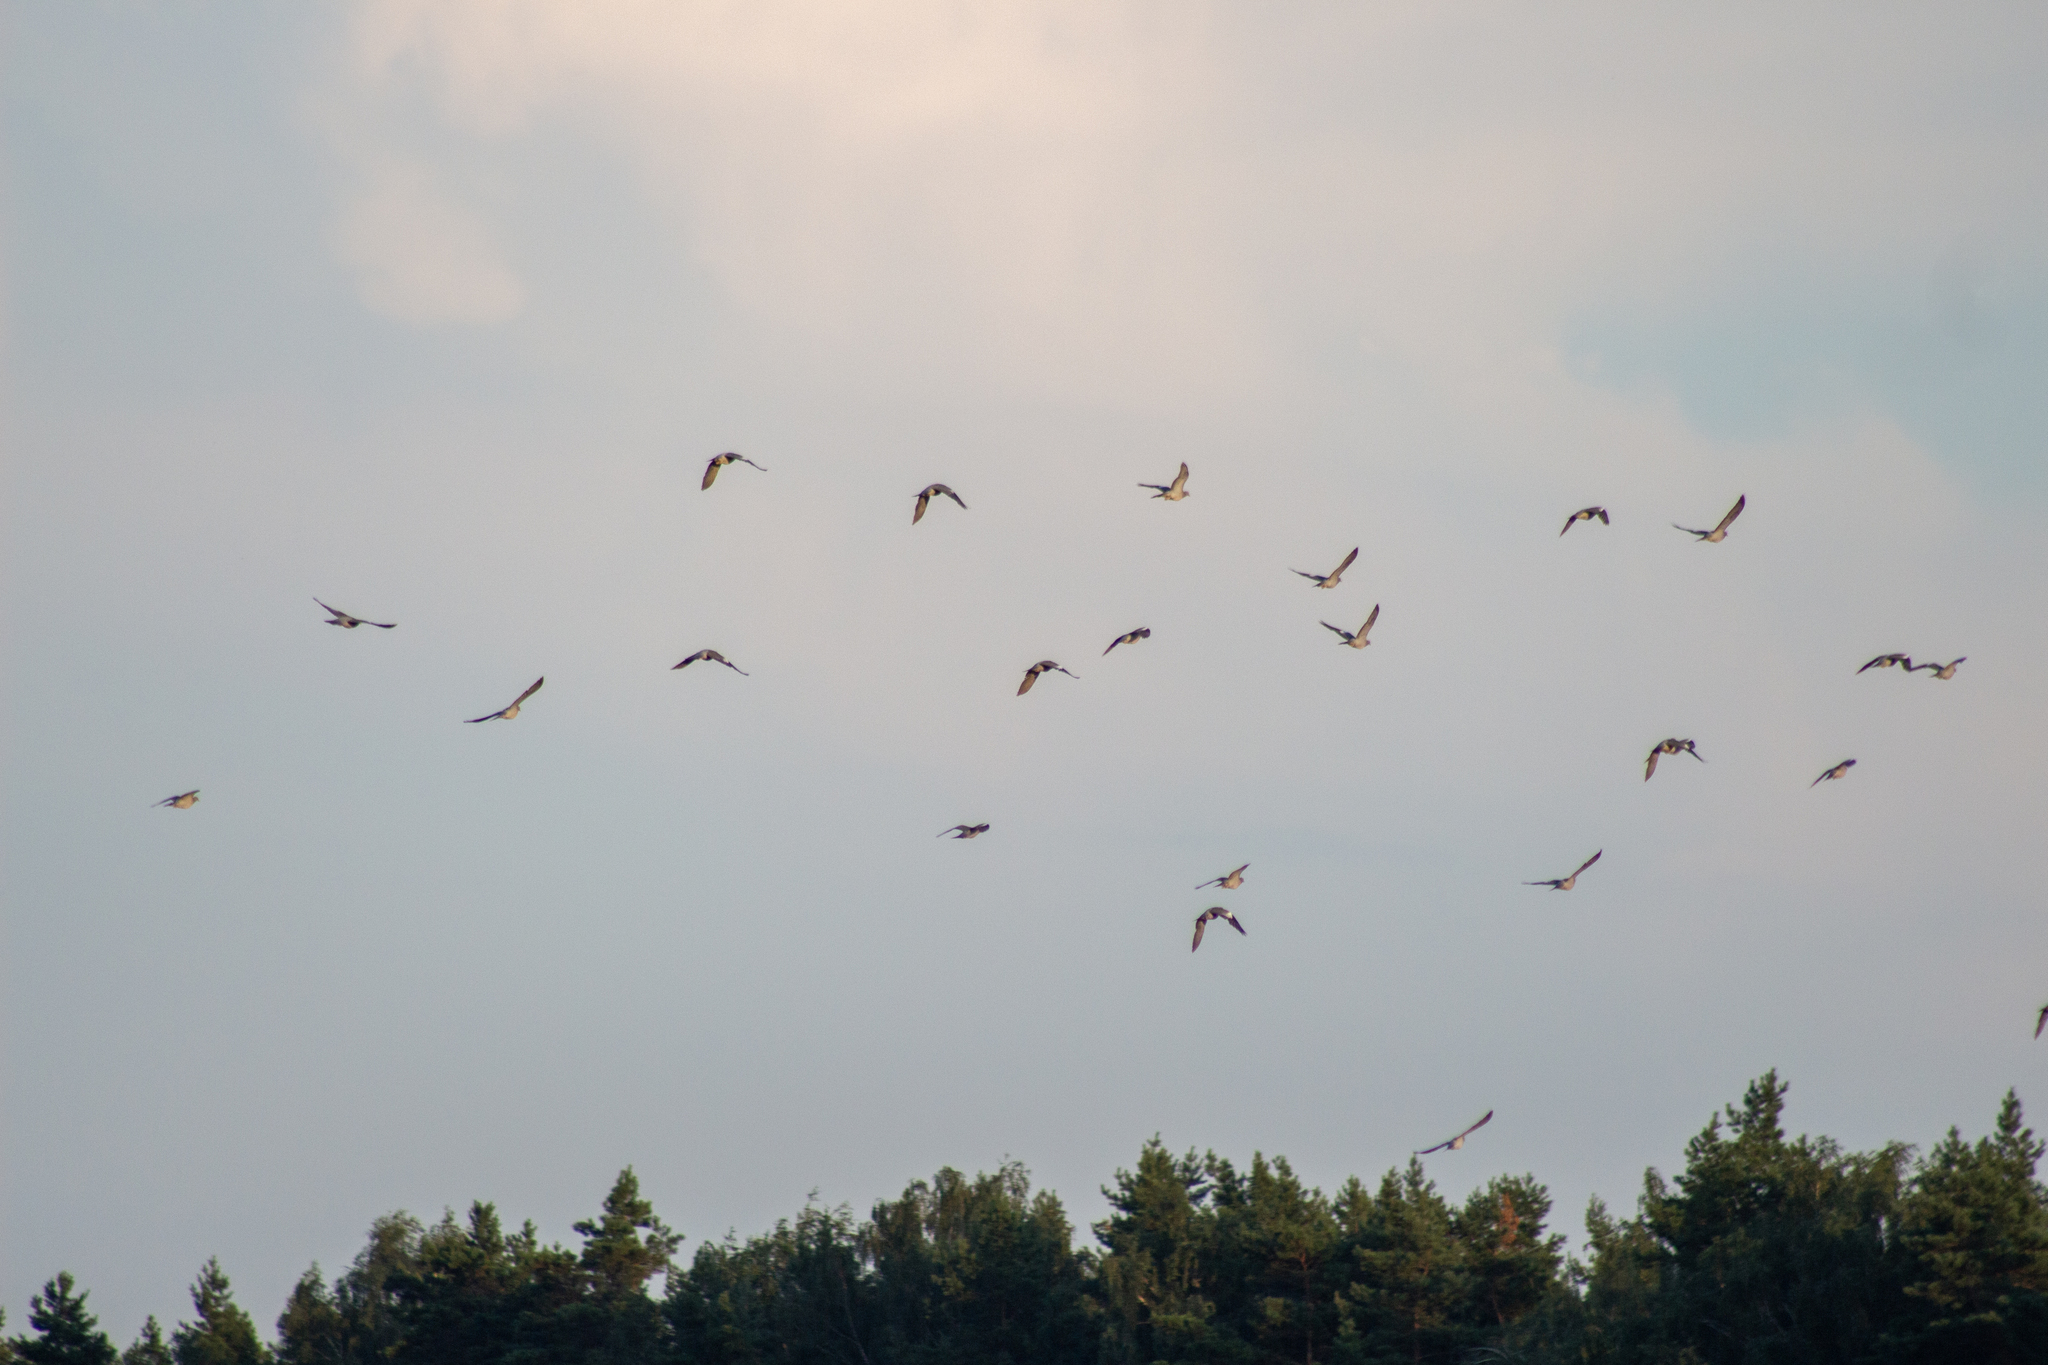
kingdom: Animalia
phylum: Chordata
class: Aves
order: Columbiformes
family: Columbidae
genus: Columba
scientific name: Columba palumbus
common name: Common wood pigeon
